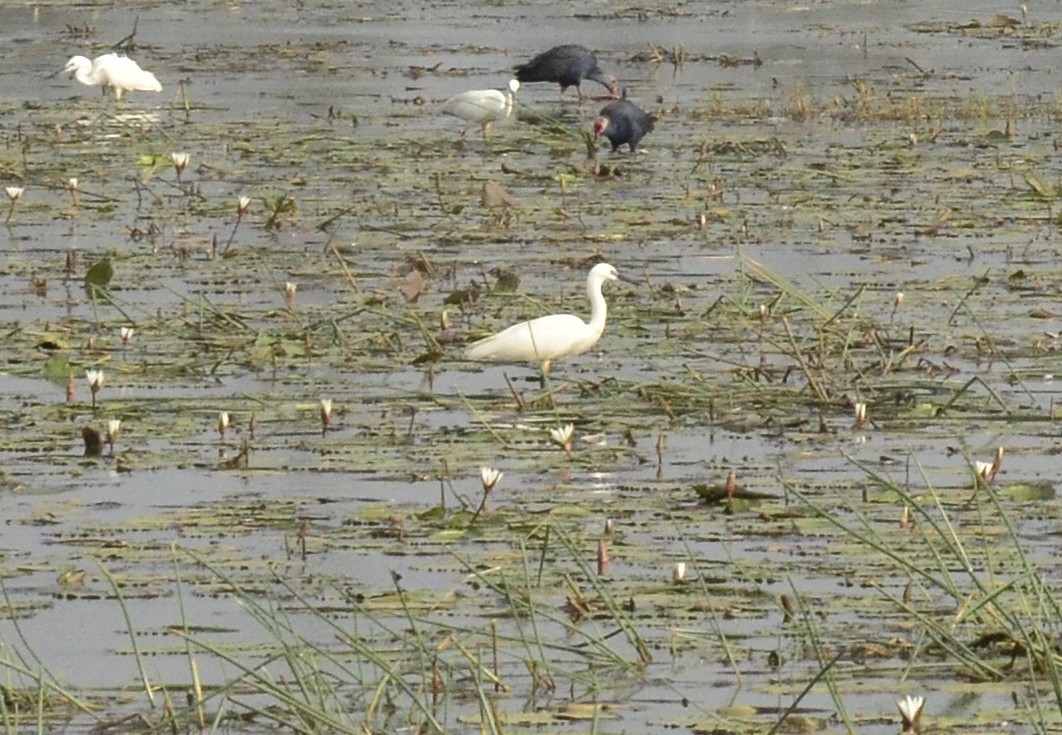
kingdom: Animalia
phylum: Chordata
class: Aves
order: Pelecaniformes
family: Ardeidae
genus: Egretta
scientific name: Egretta garzetta
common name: Little egret
